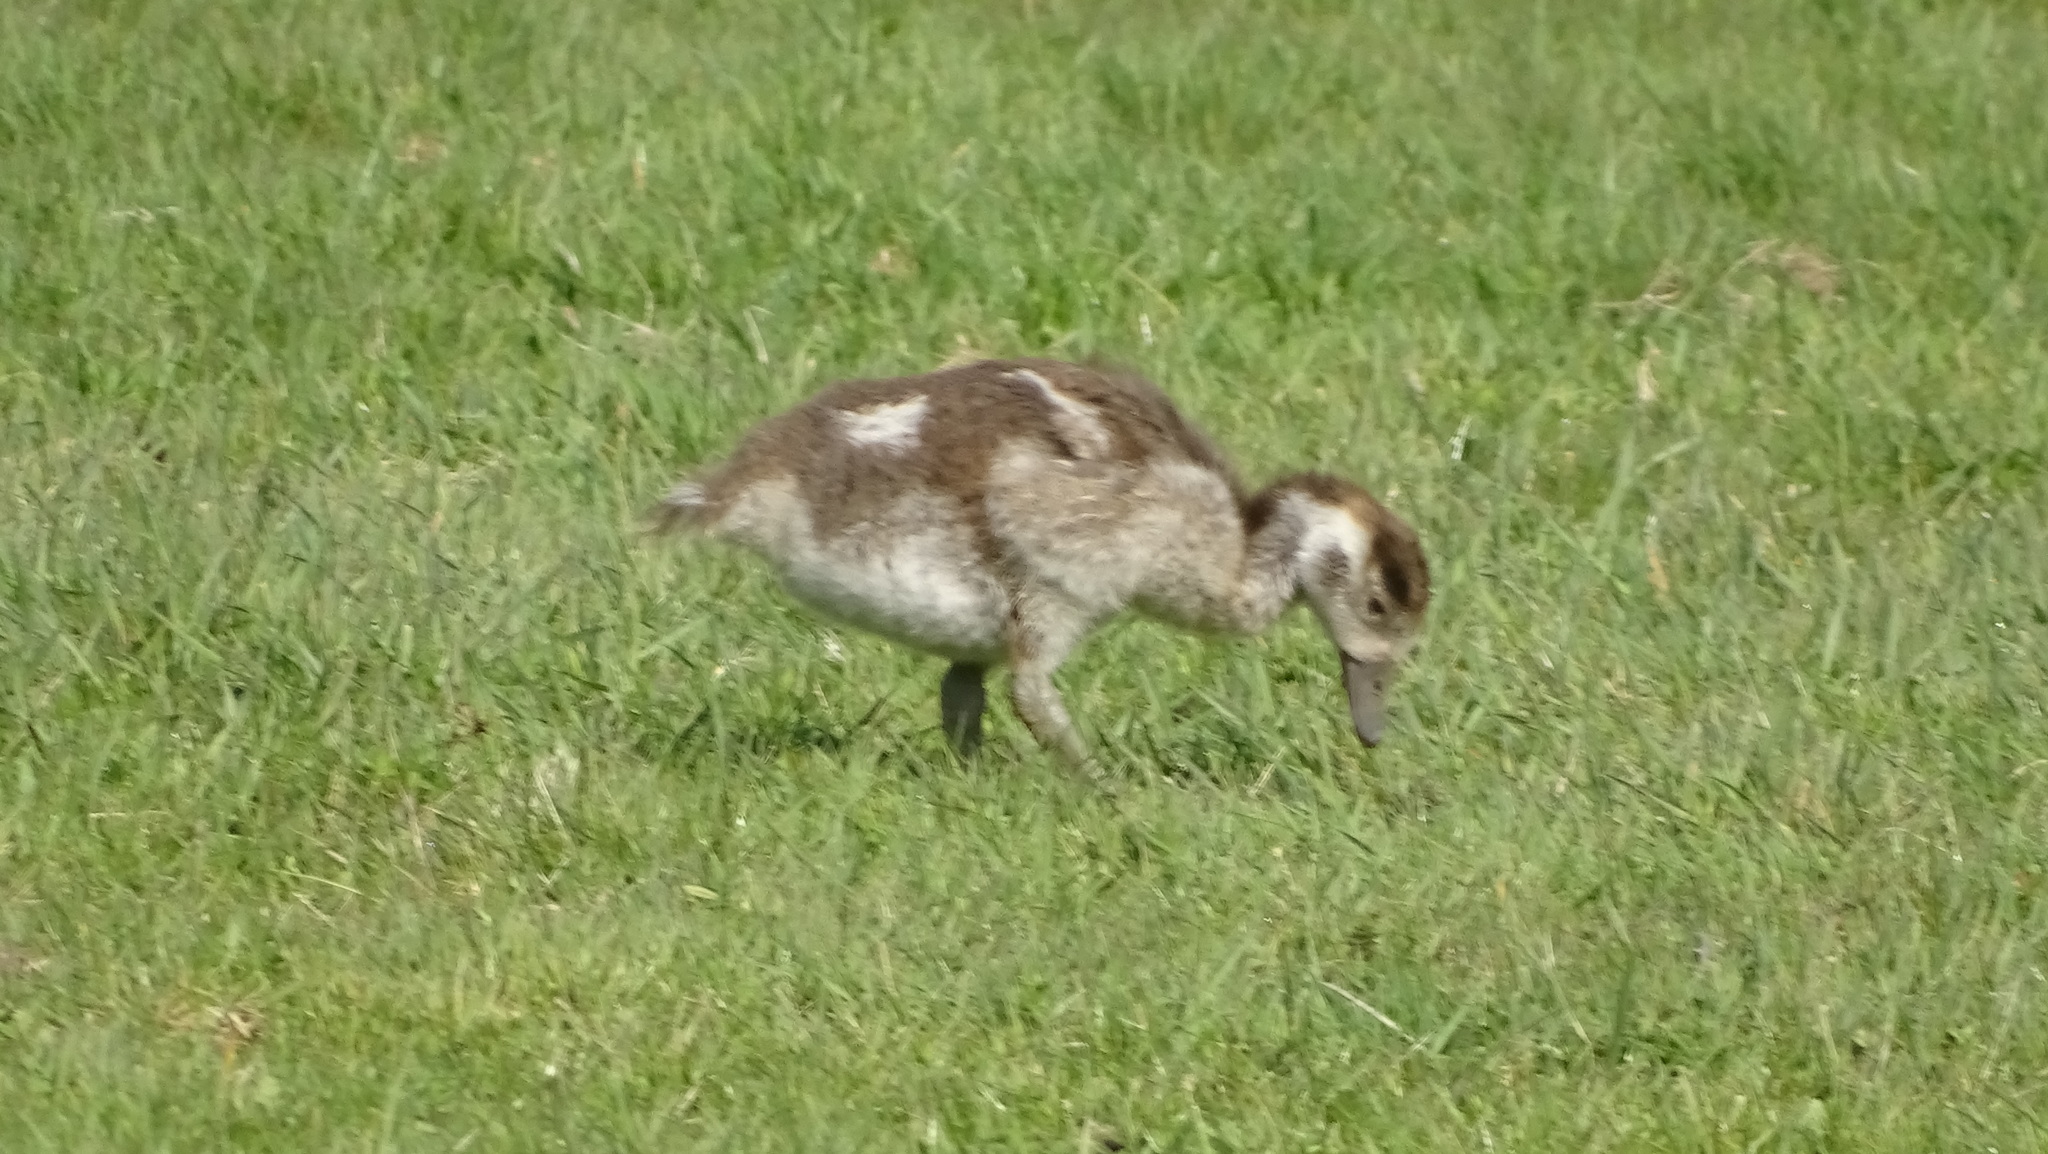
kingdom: Animalia
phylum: Chordata
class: Aves
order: Anseriformes
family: Anatidae
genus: Alopochen
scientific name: Alopochen aegyptiaca
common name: Egyptian goose
